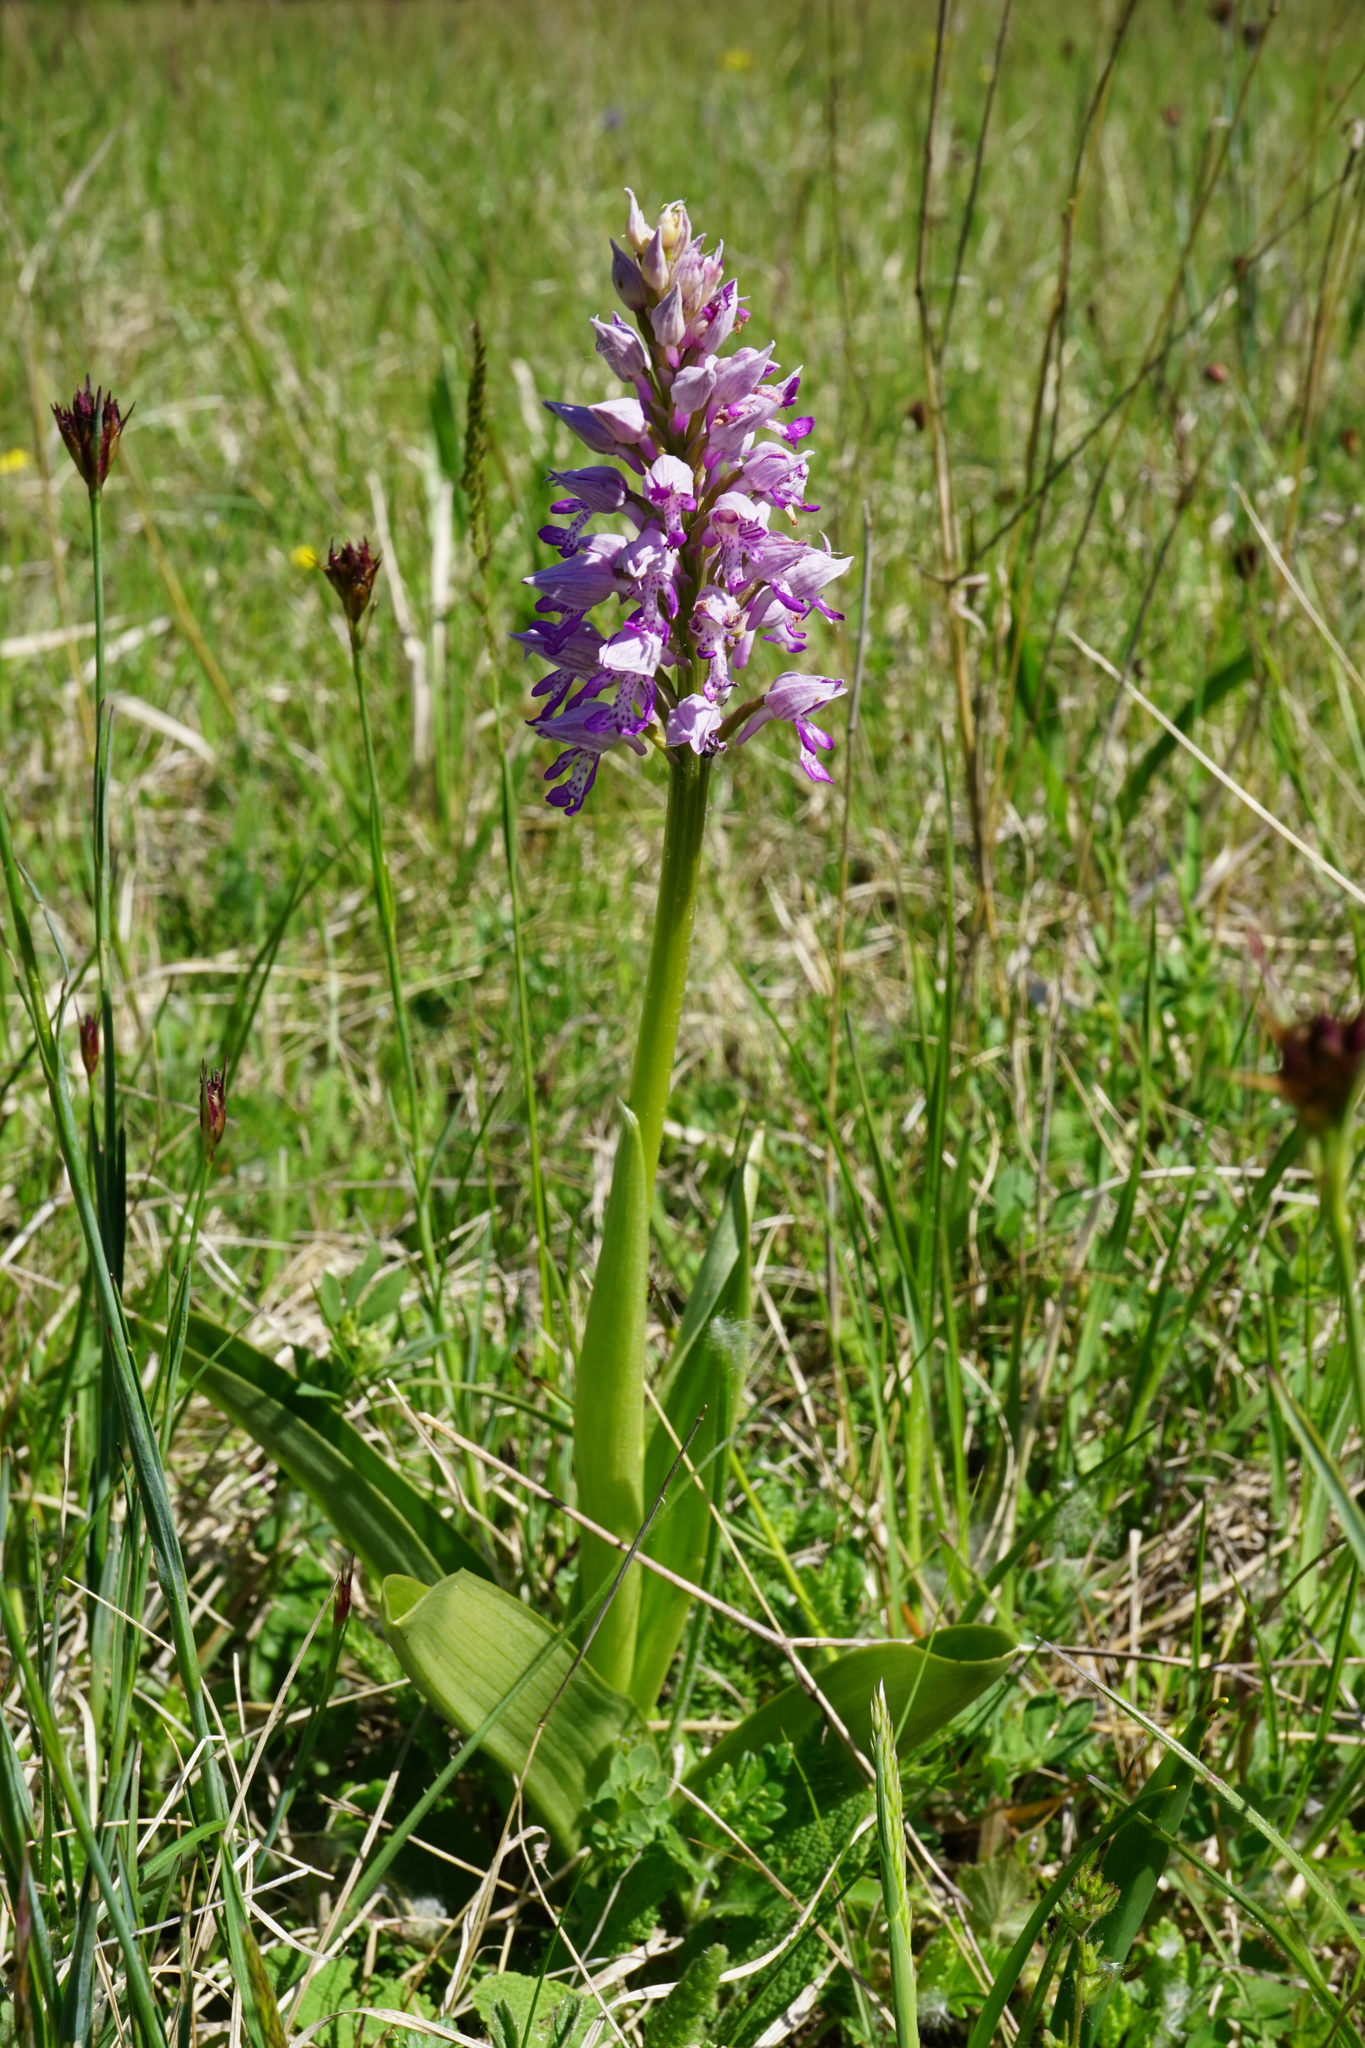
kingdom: Plantae
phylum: Tracheophyta
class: Liliopsida
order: Asparagales
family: Orchidaceae
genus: Orchis
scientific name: Orchis militaris
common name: Military orchid
